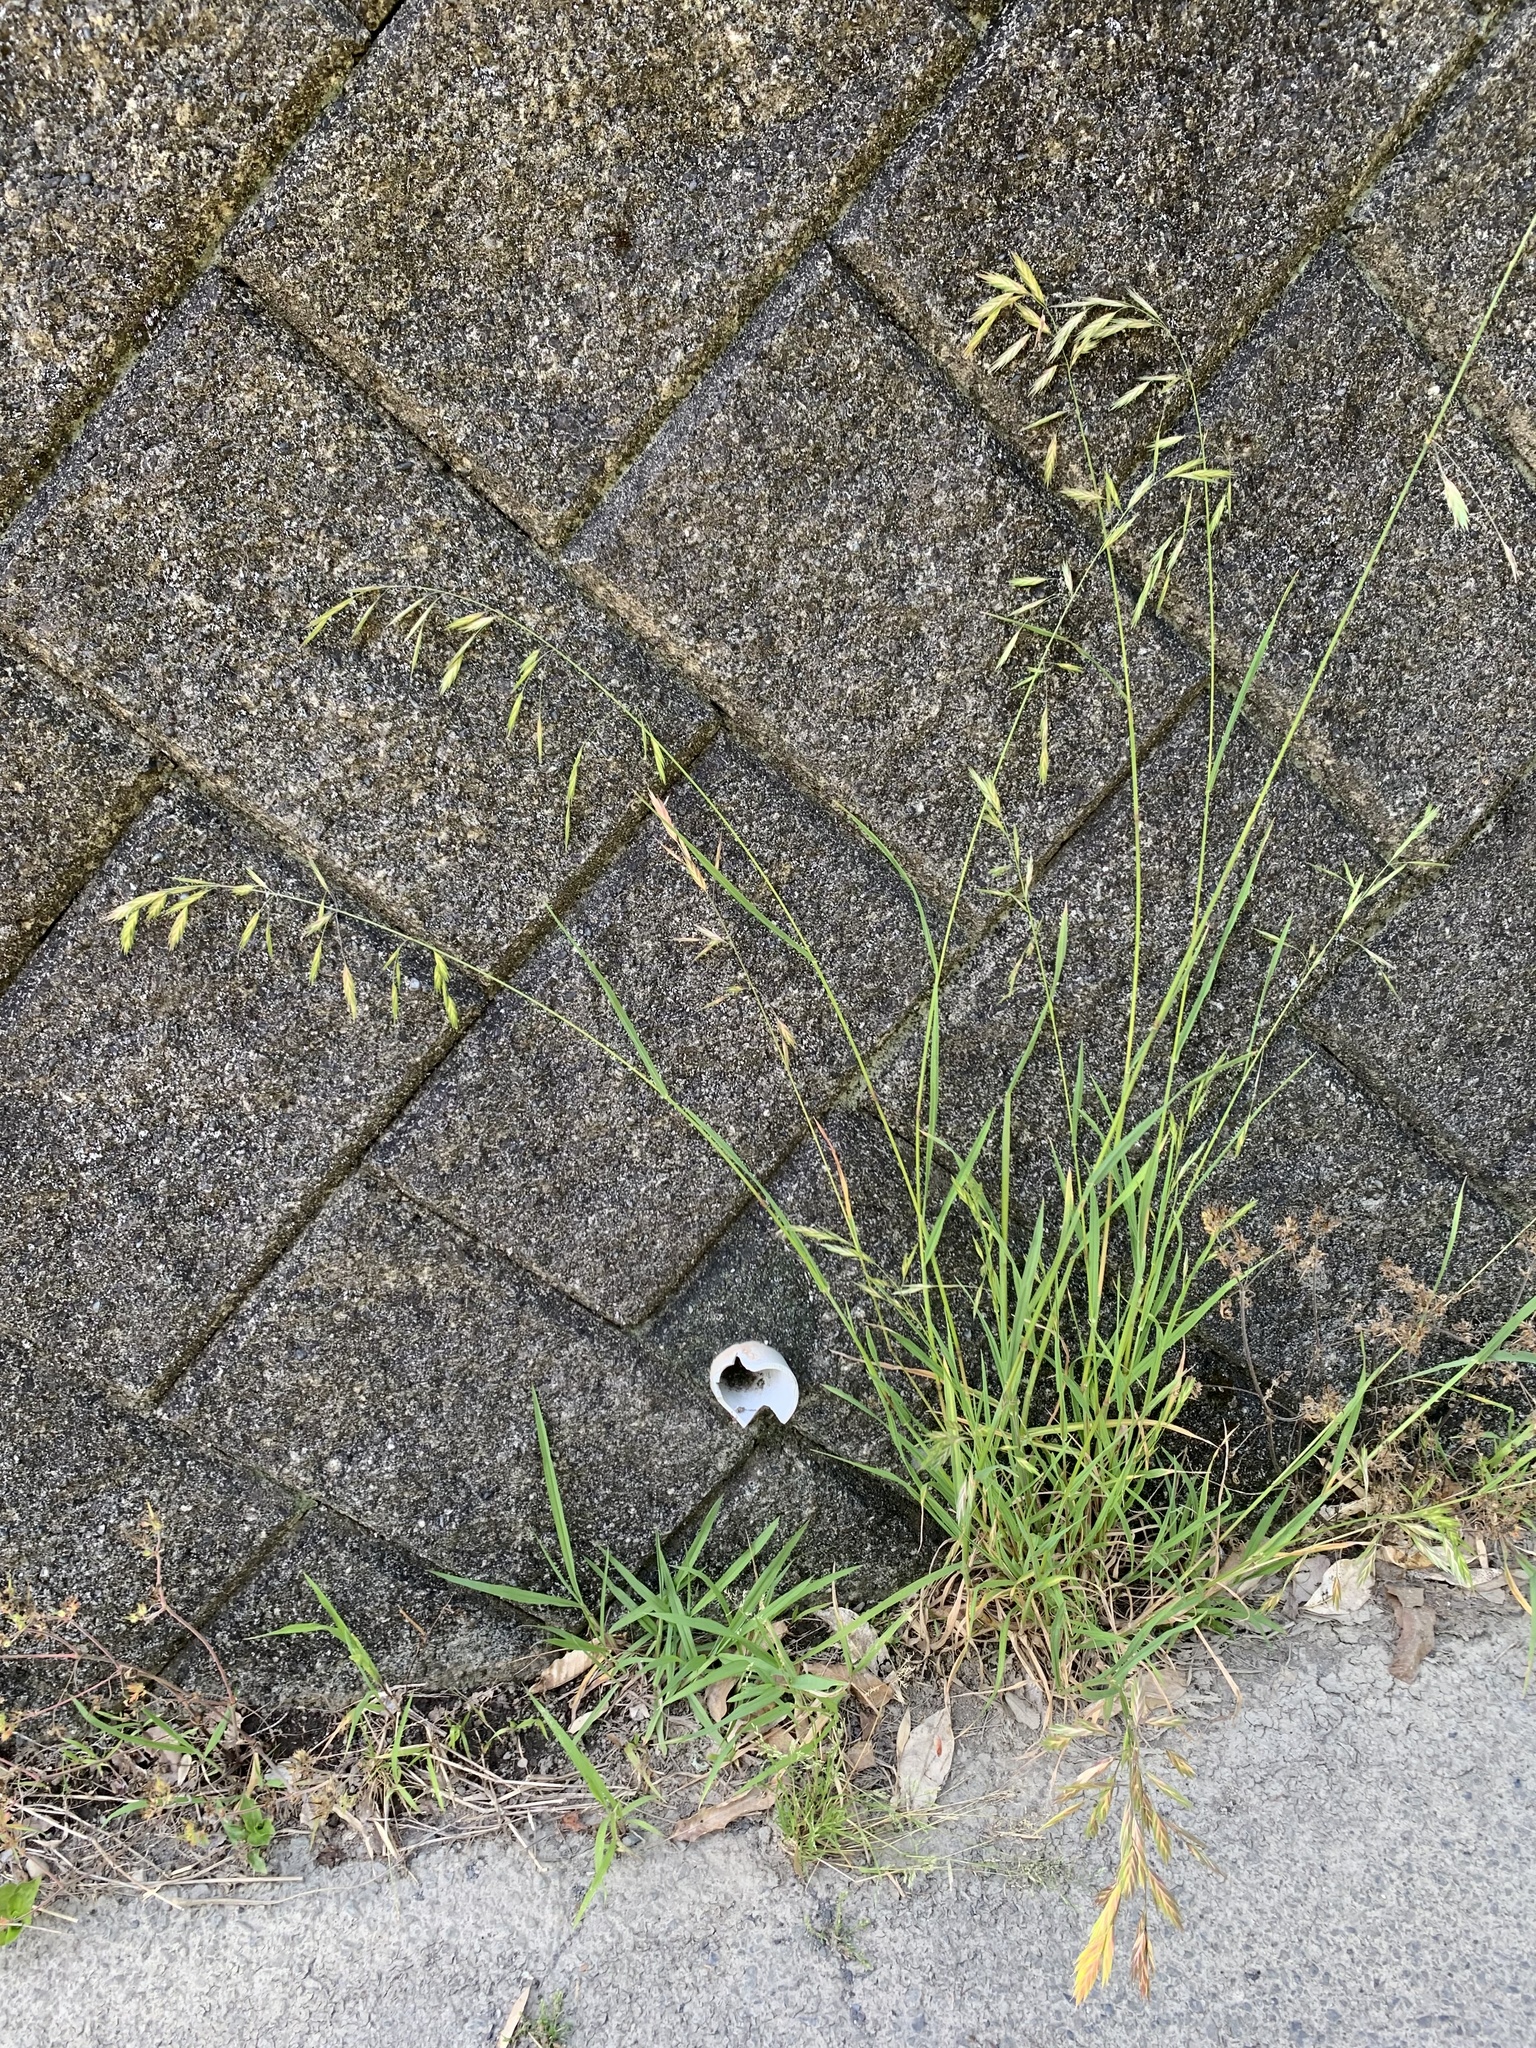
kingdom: Plantae
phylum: Tracheophyta
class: Liliopsida
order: Poales
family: Poaceae
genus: Bromus
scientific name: Bromus catharticus
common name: Rescuegrass
